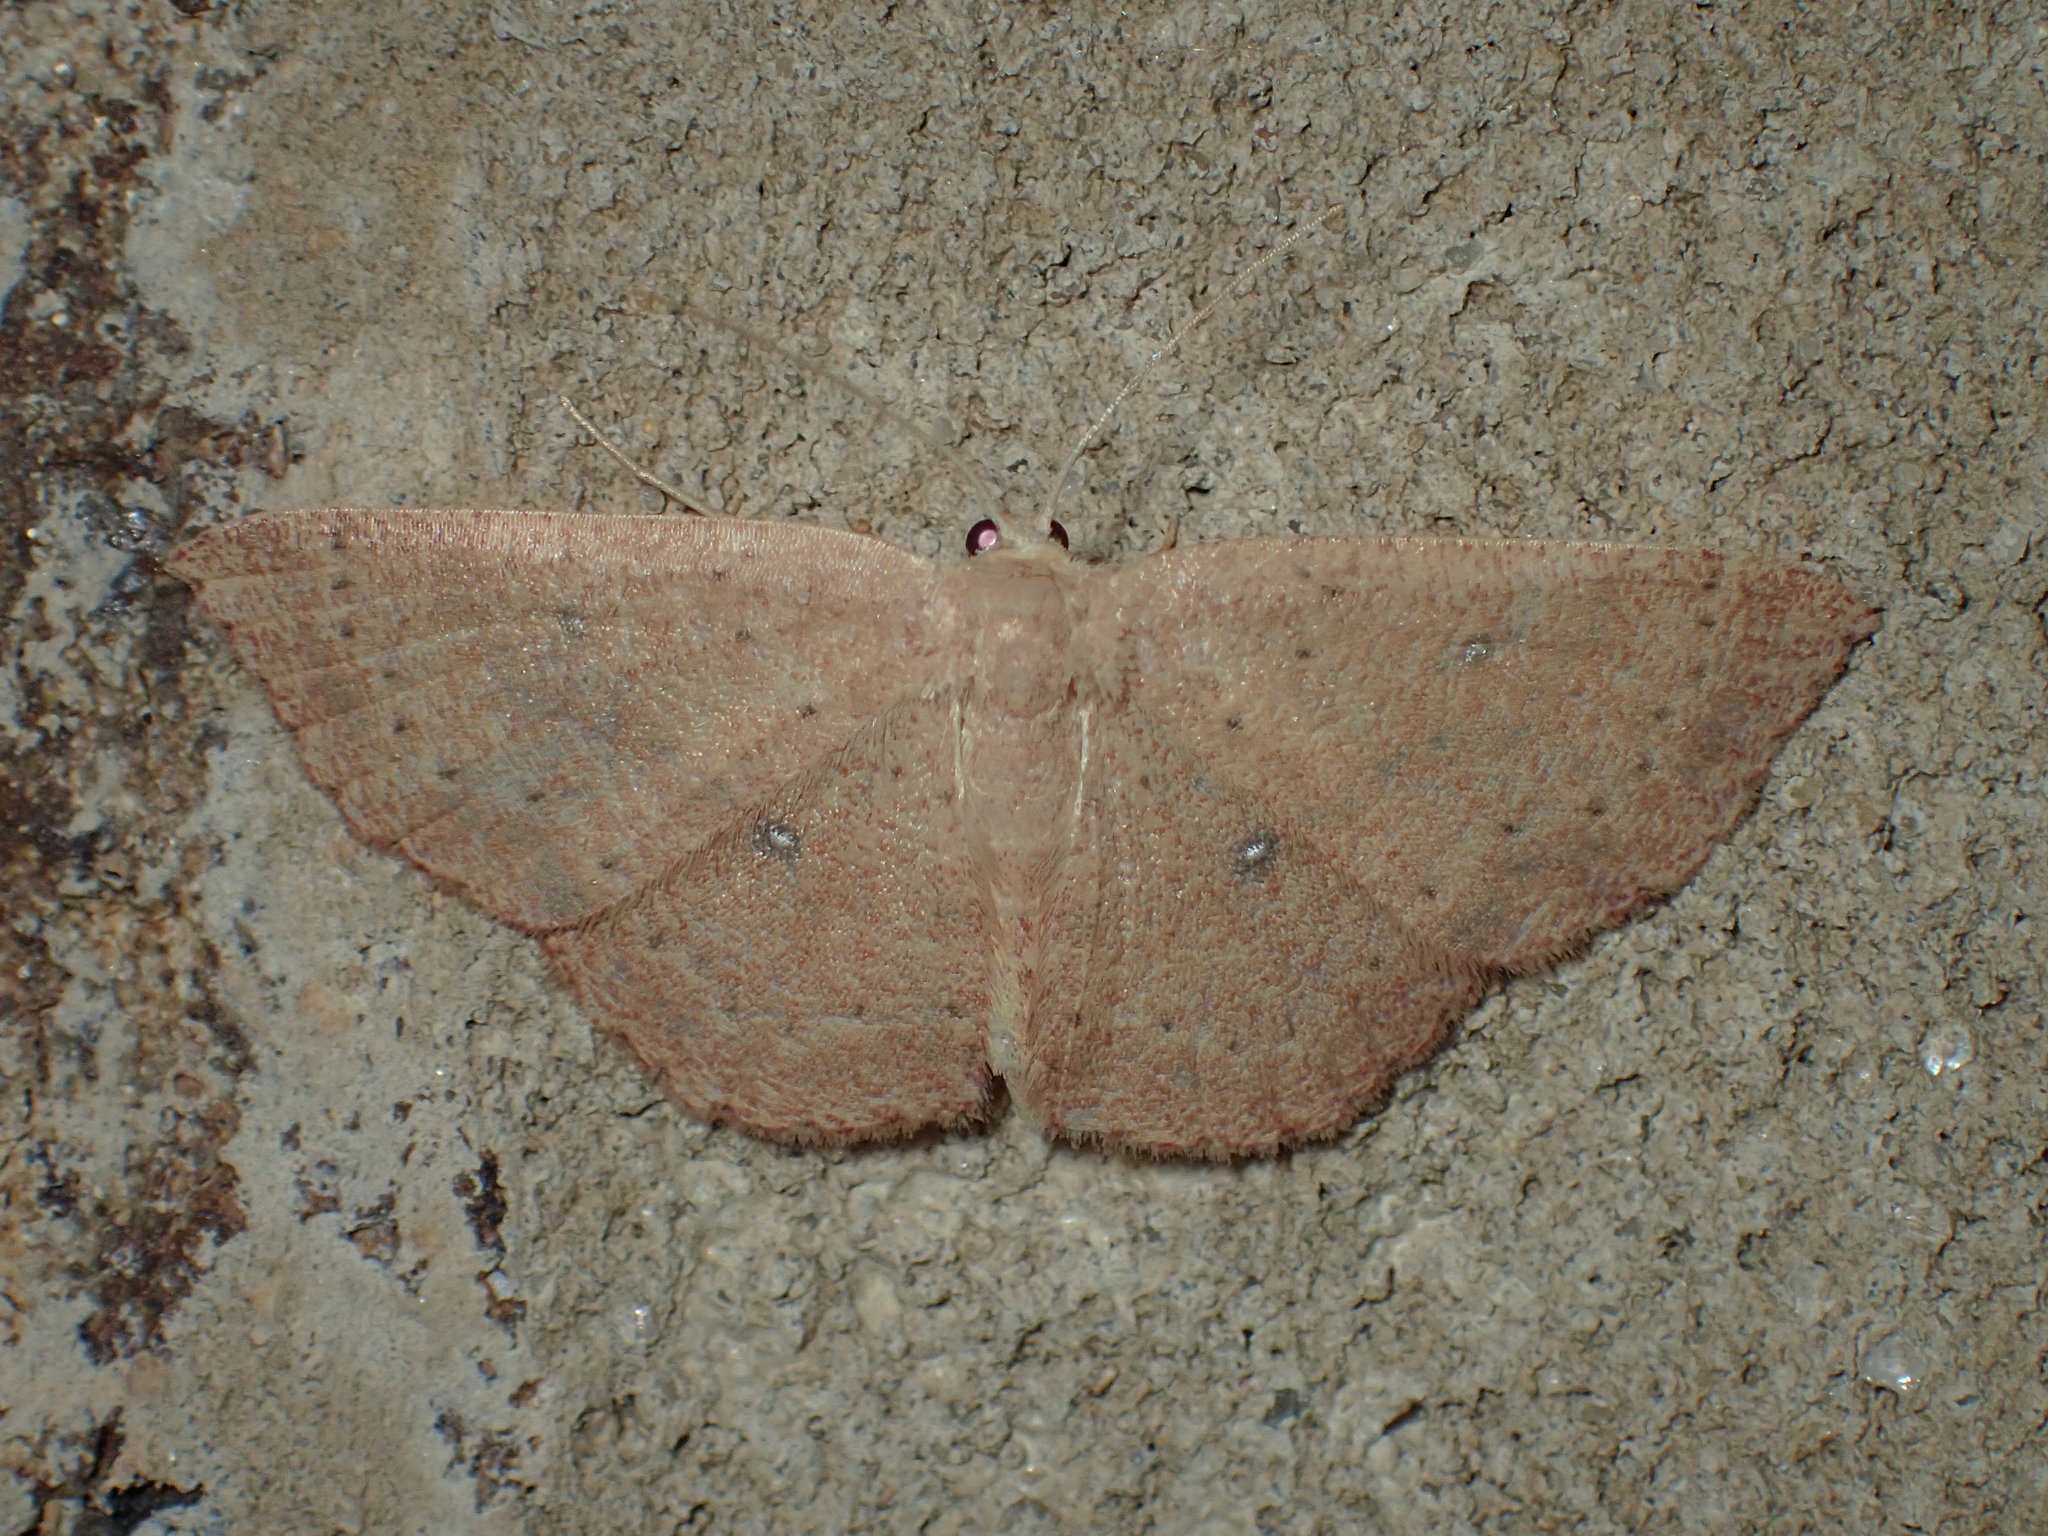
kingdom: Animalia
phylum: Arthropoda
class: Insecta
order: Lepidoptera
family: Geometridae
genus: Cyclophora
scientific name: Cyclophora packardi
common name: Packard's wave
